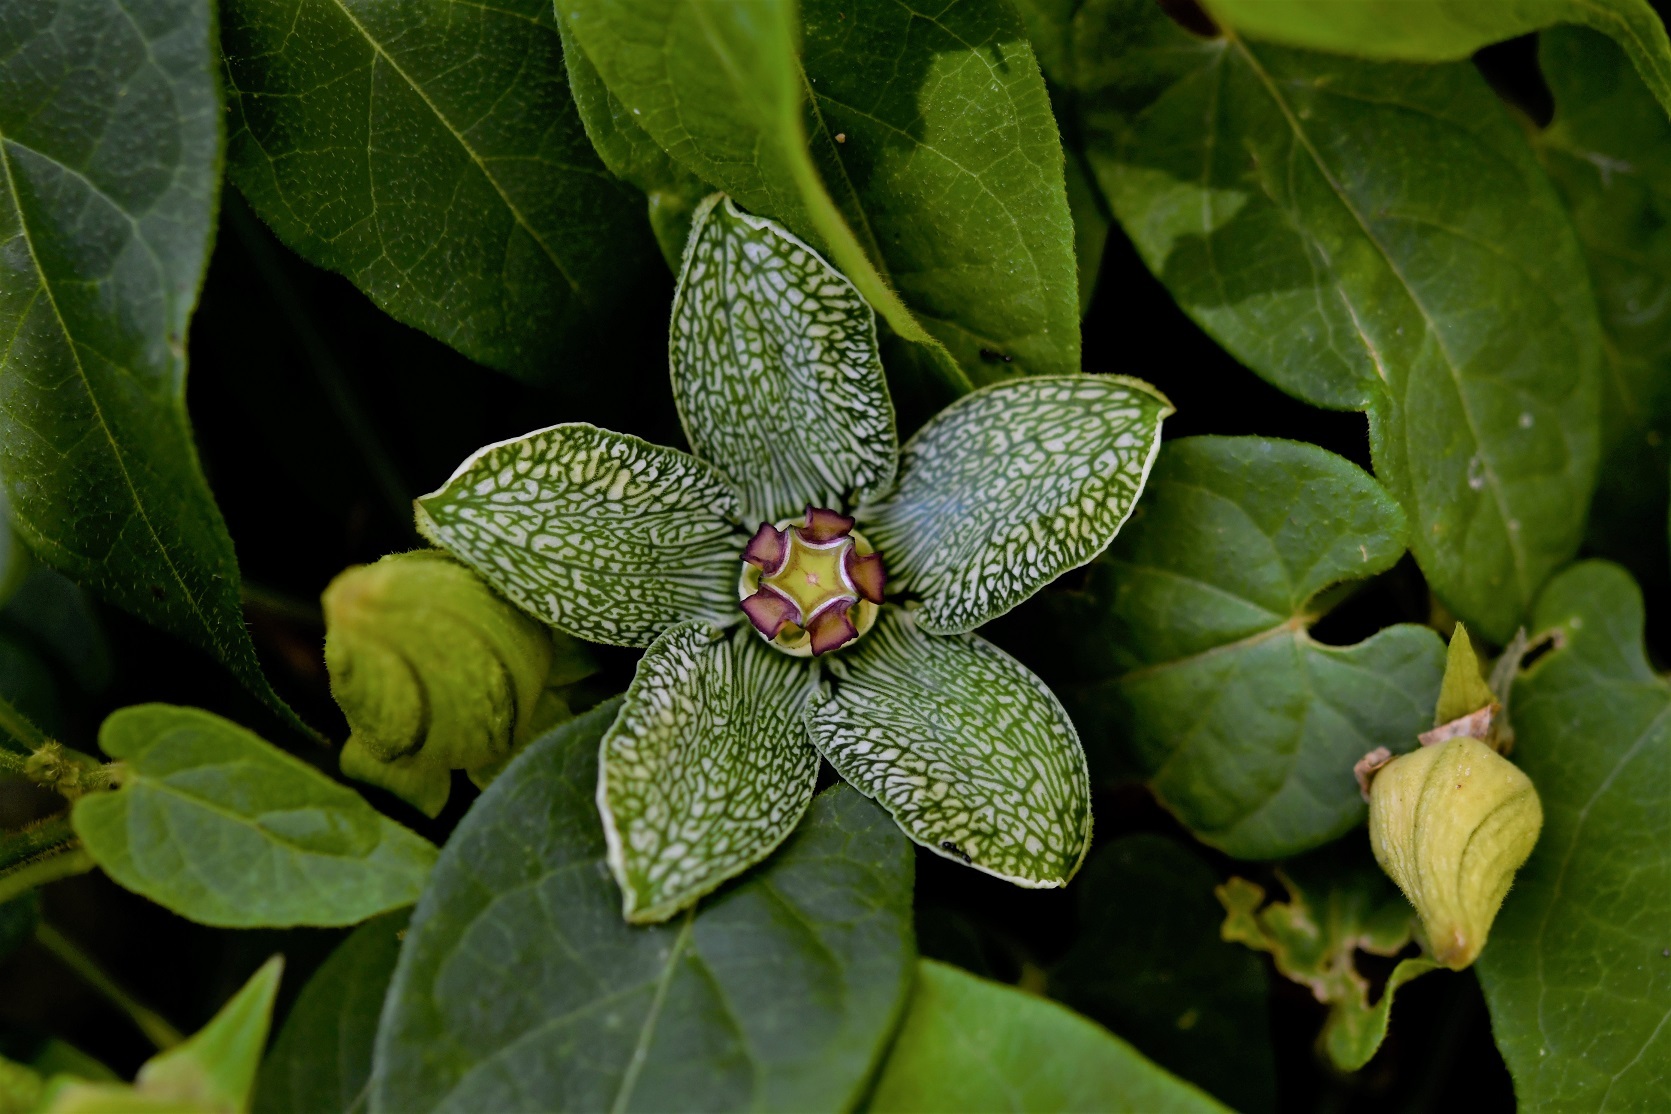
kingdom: Plantae
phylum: Tracheophyta
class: Magnoliopsida
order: Gentianales
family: Apocynaceae
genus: Gonolobus
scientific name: Gonolobus incerianus
